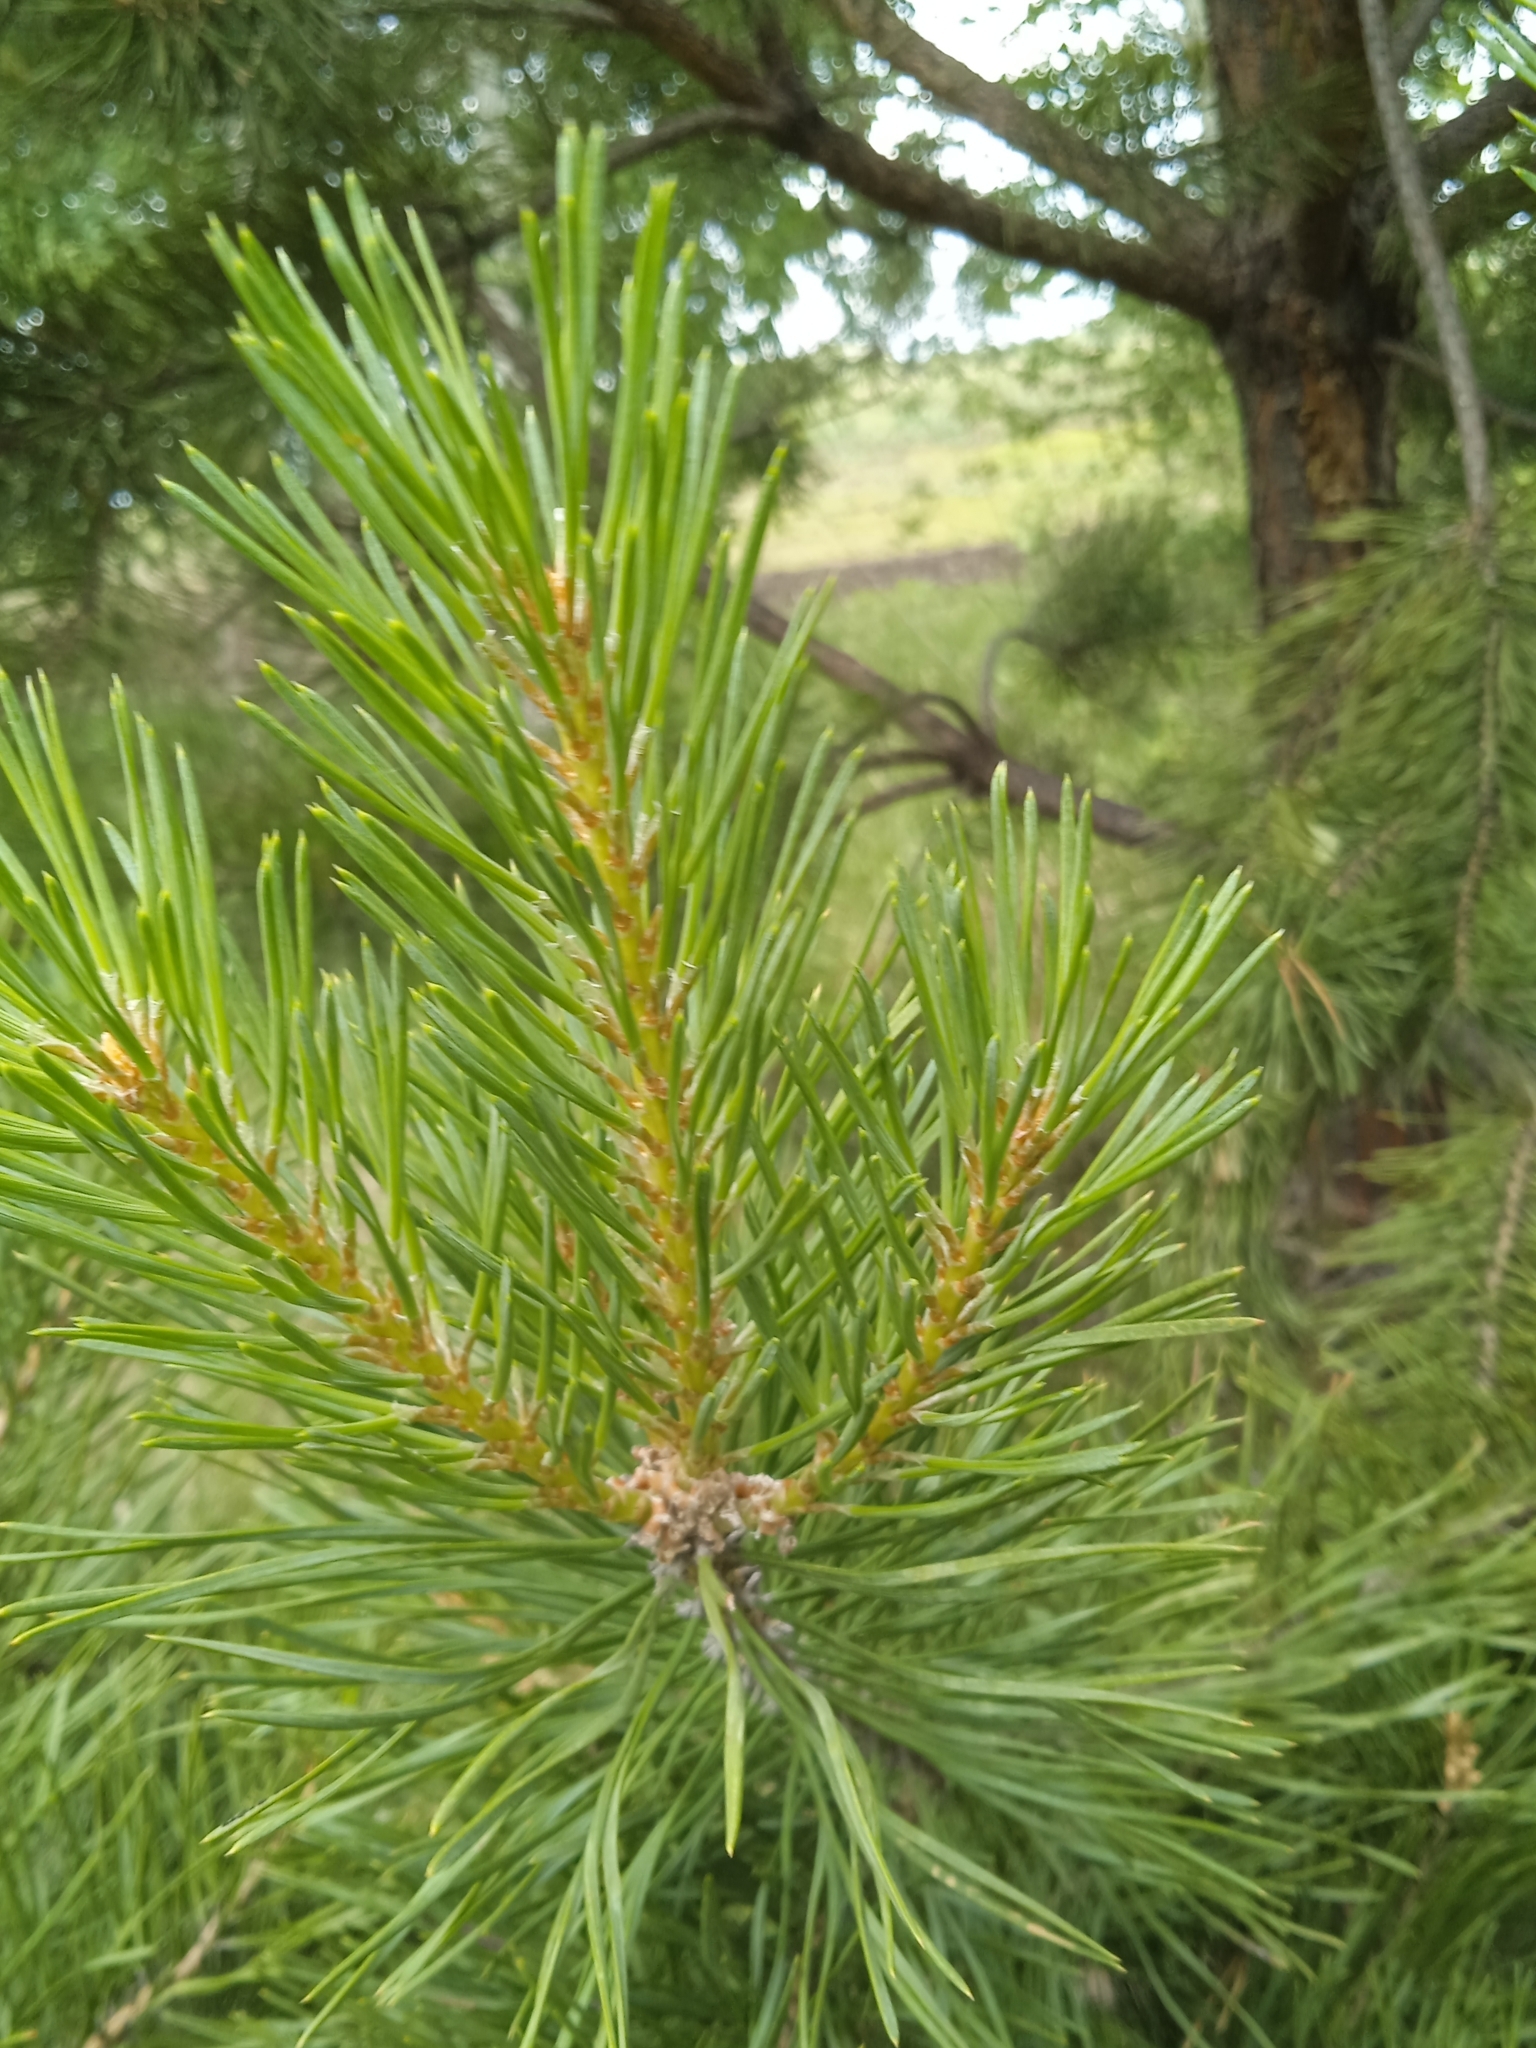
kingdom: Plantae
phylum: Tracheophyta
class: Pinopsida
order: Pinales
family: Pinaceae
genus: Pinus
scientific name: Pinus sylvestris
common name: Scots pine
